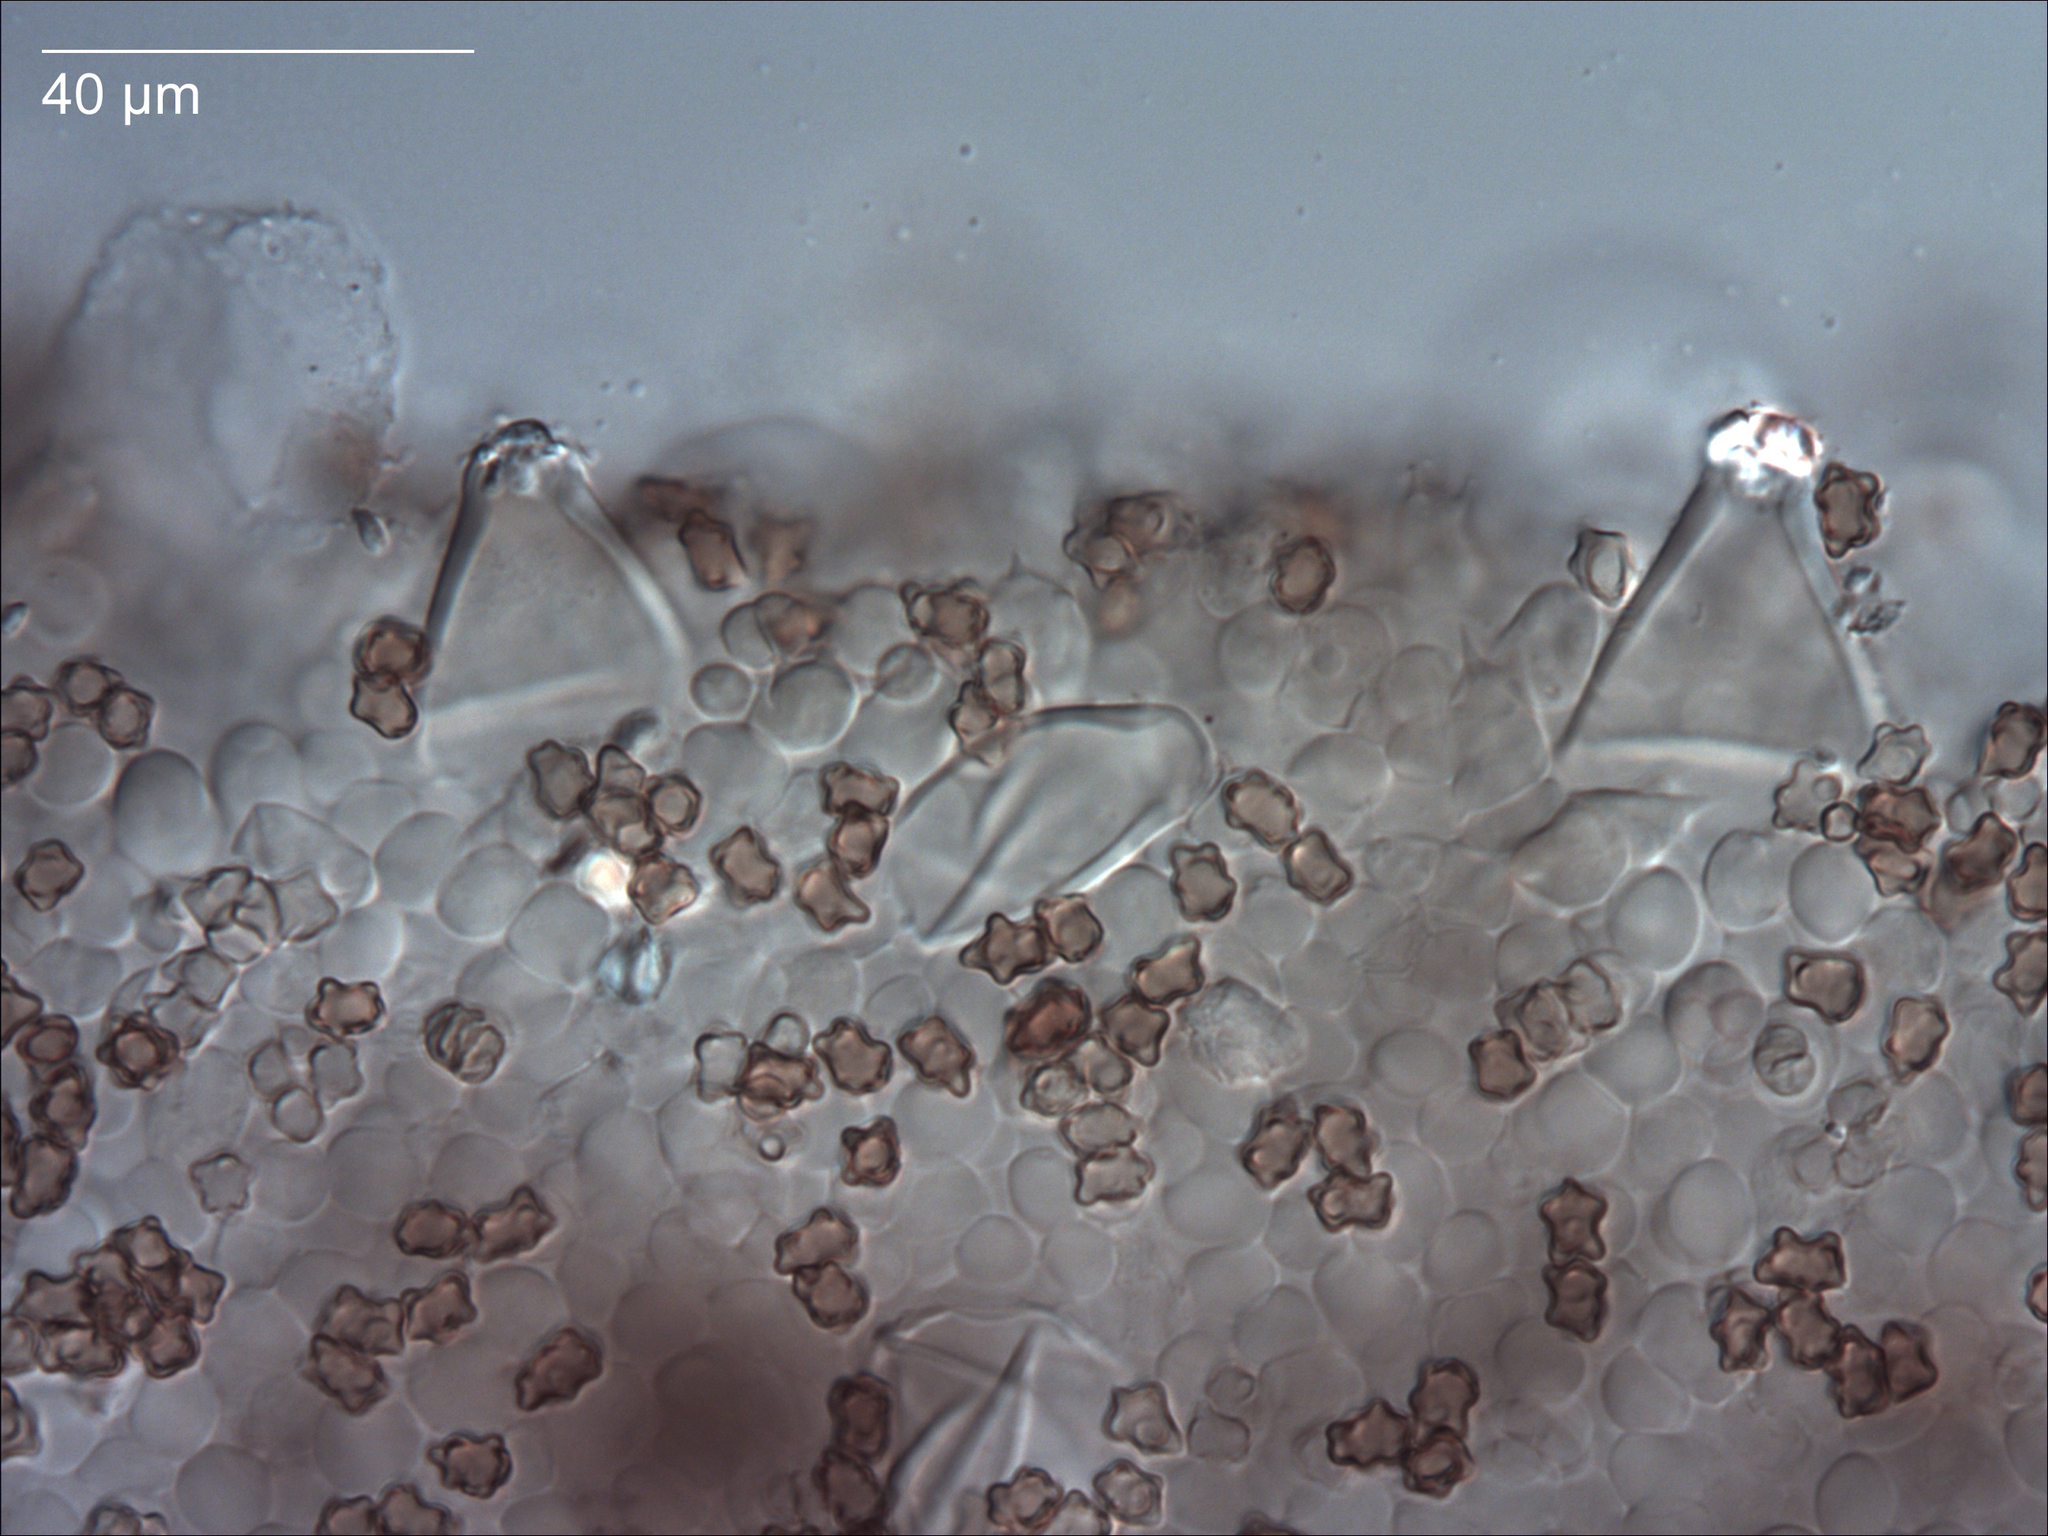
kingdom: Fungi
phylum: Basidiomycota
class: Agaricomycetes
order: Agaricales
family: Inocybaceae
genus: Inocybe
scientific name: Inocybe gilibertoi
